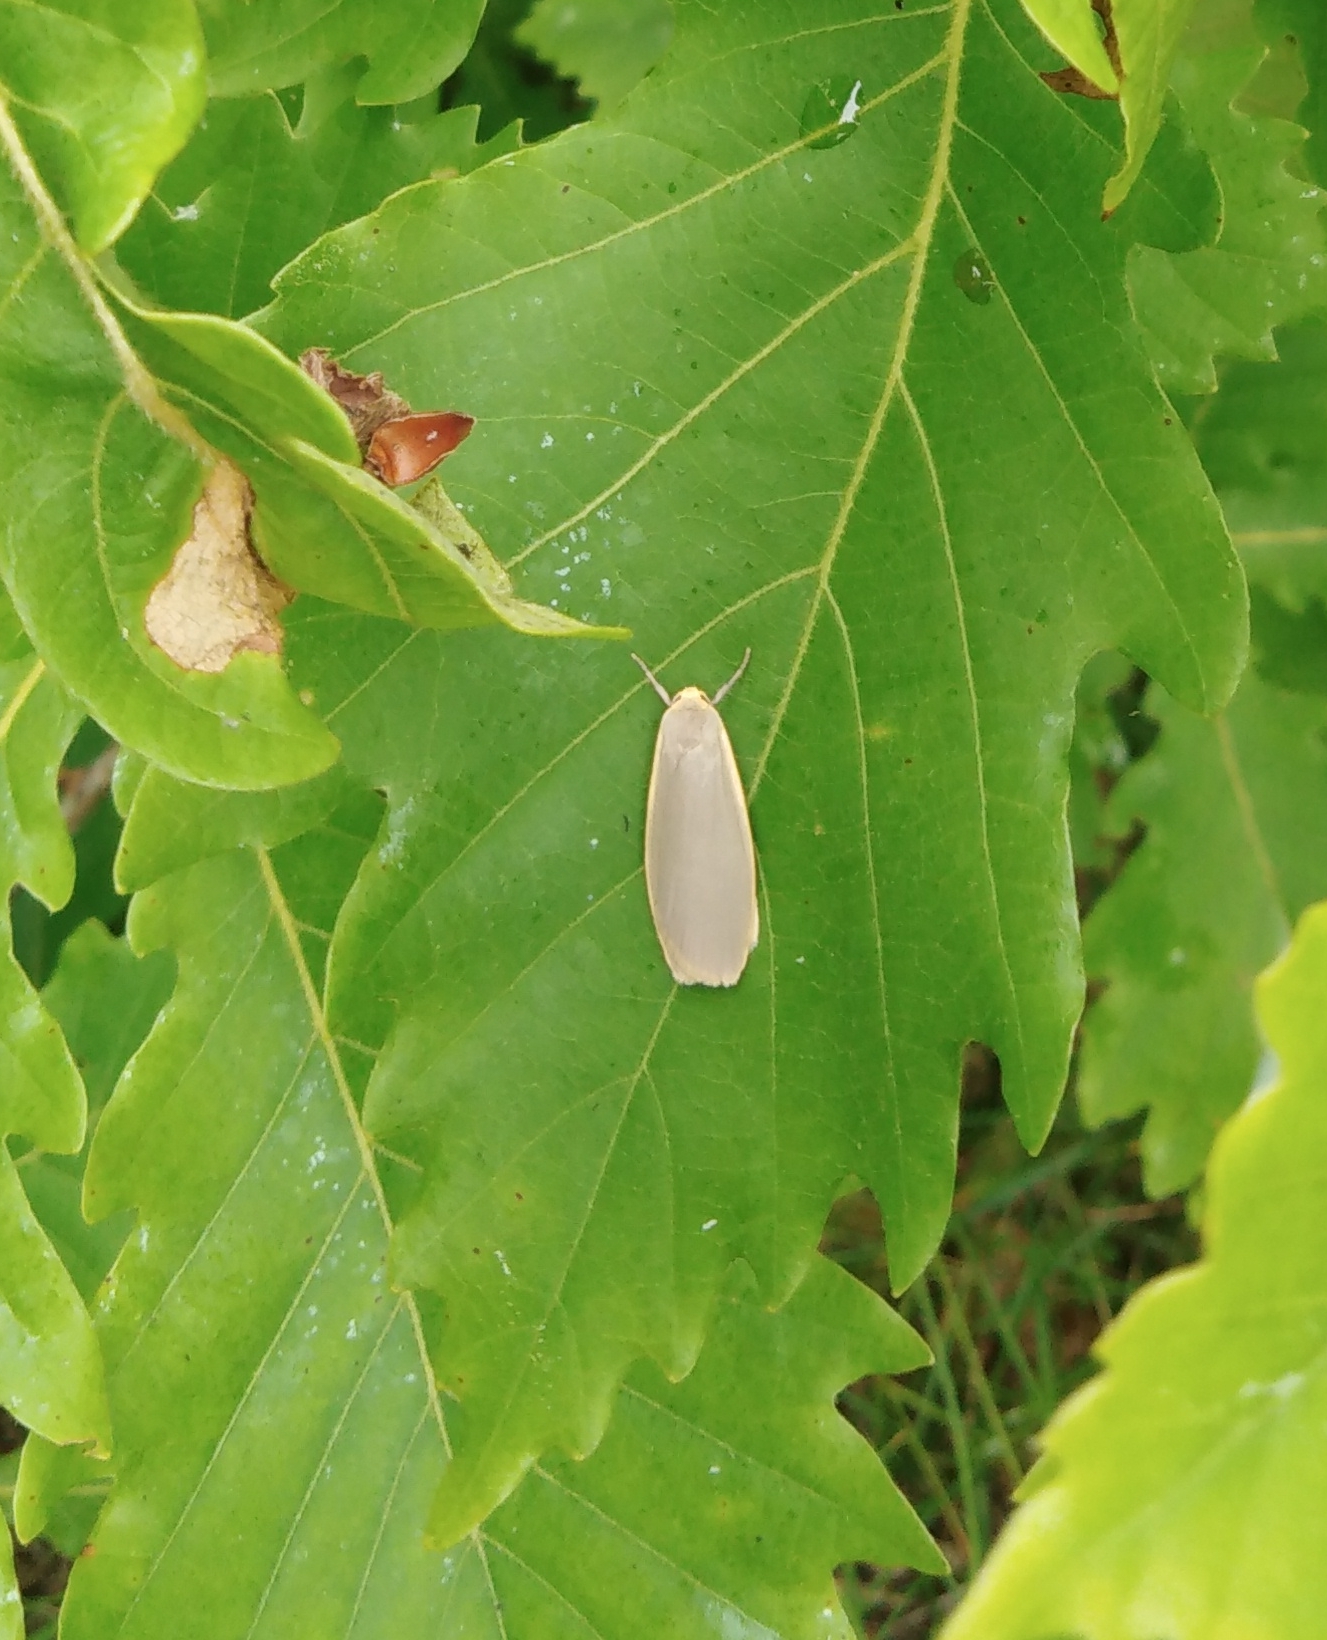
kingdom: Animalia
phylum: Arthropoda
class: Insecta
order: Lepidoptera
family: Erebidae
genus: Collita
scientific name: Collita griseola
